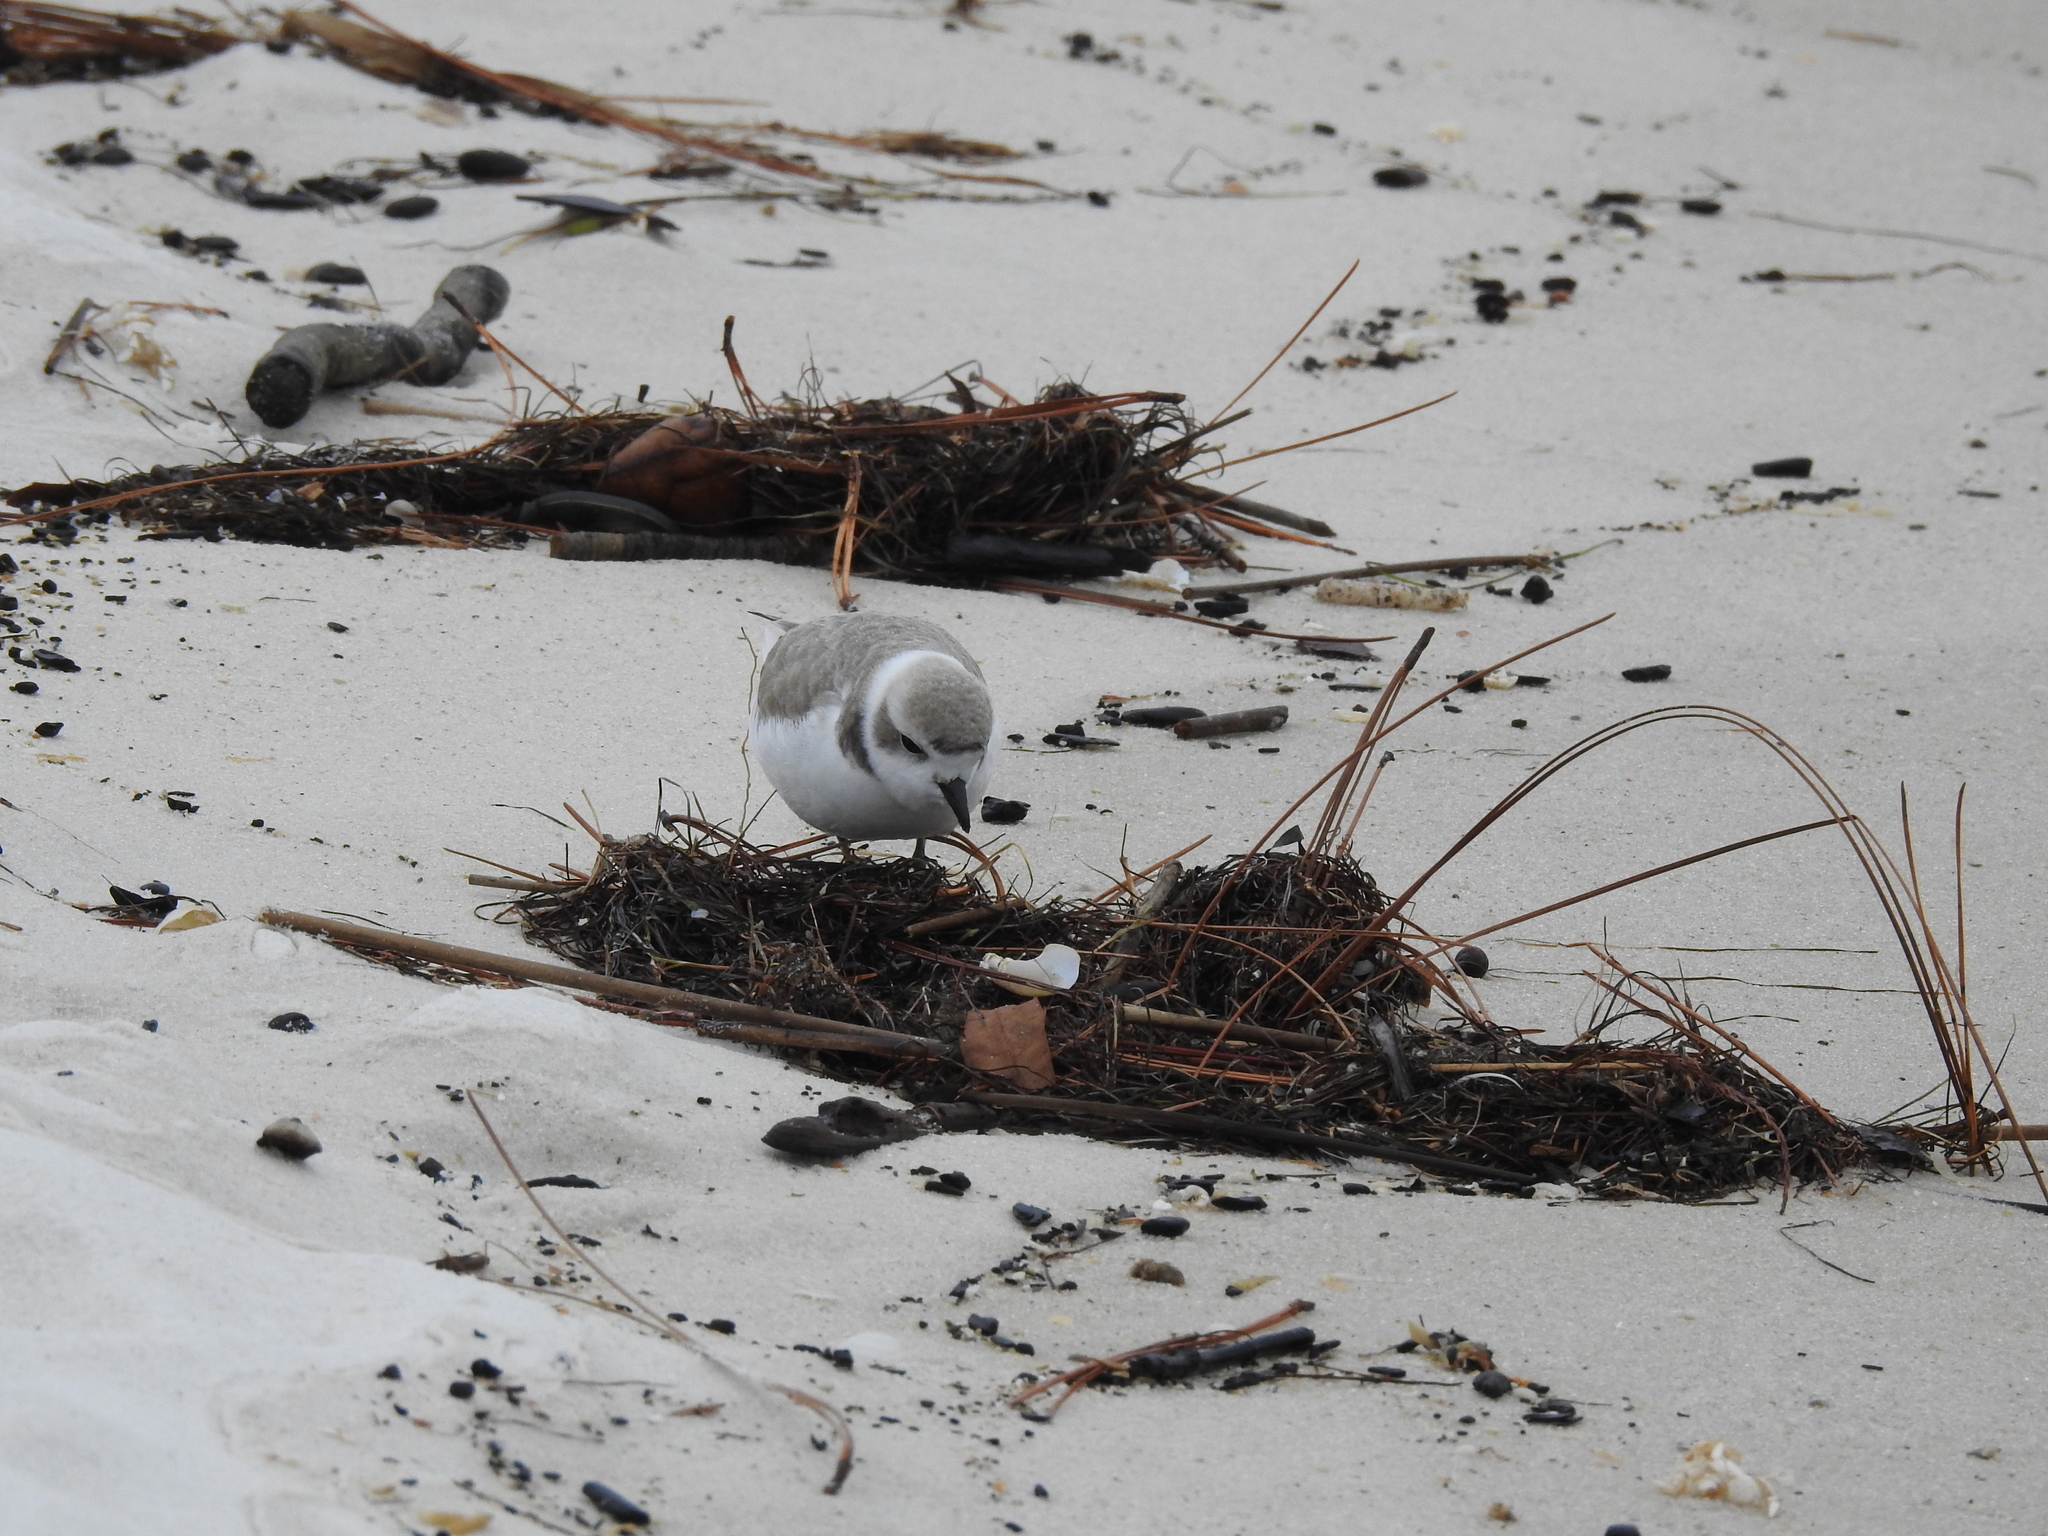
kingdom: Animalia
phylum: Chordata
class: Aves
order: Charadriiformes
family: Charadriidae
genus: Anarhynchus
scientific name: Anarhynchus
